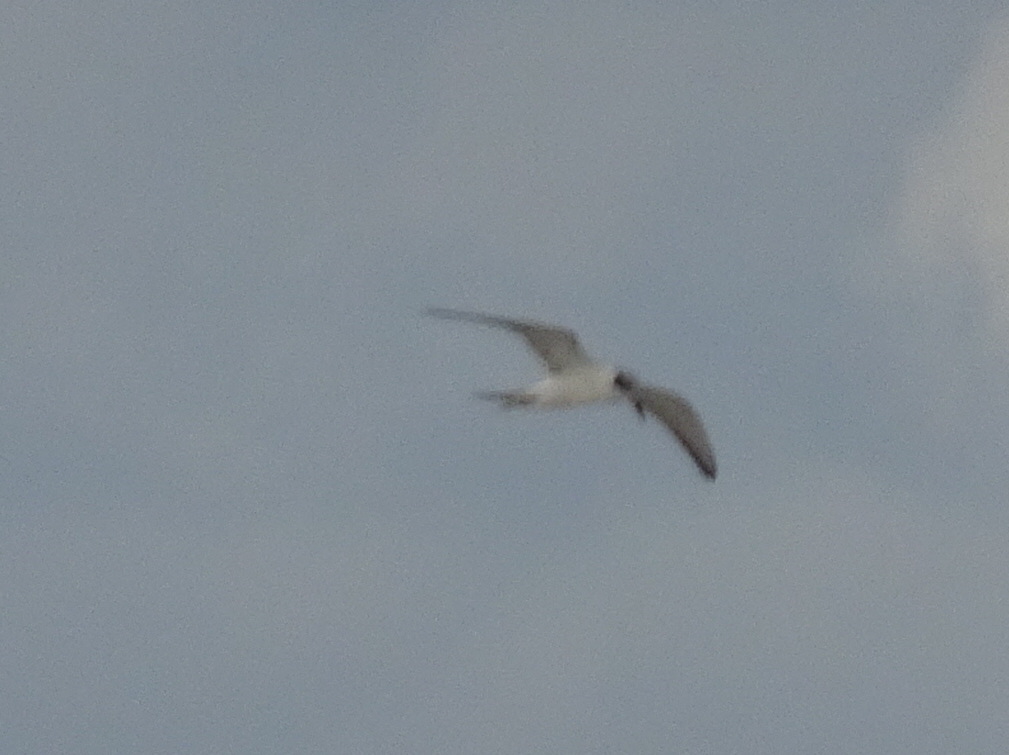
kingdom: Animalia
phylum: Chordata
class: Aves
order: Charadriiformes
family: Laridae
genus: Sterna
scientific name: Sterna forsteri
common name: Forster's tern
